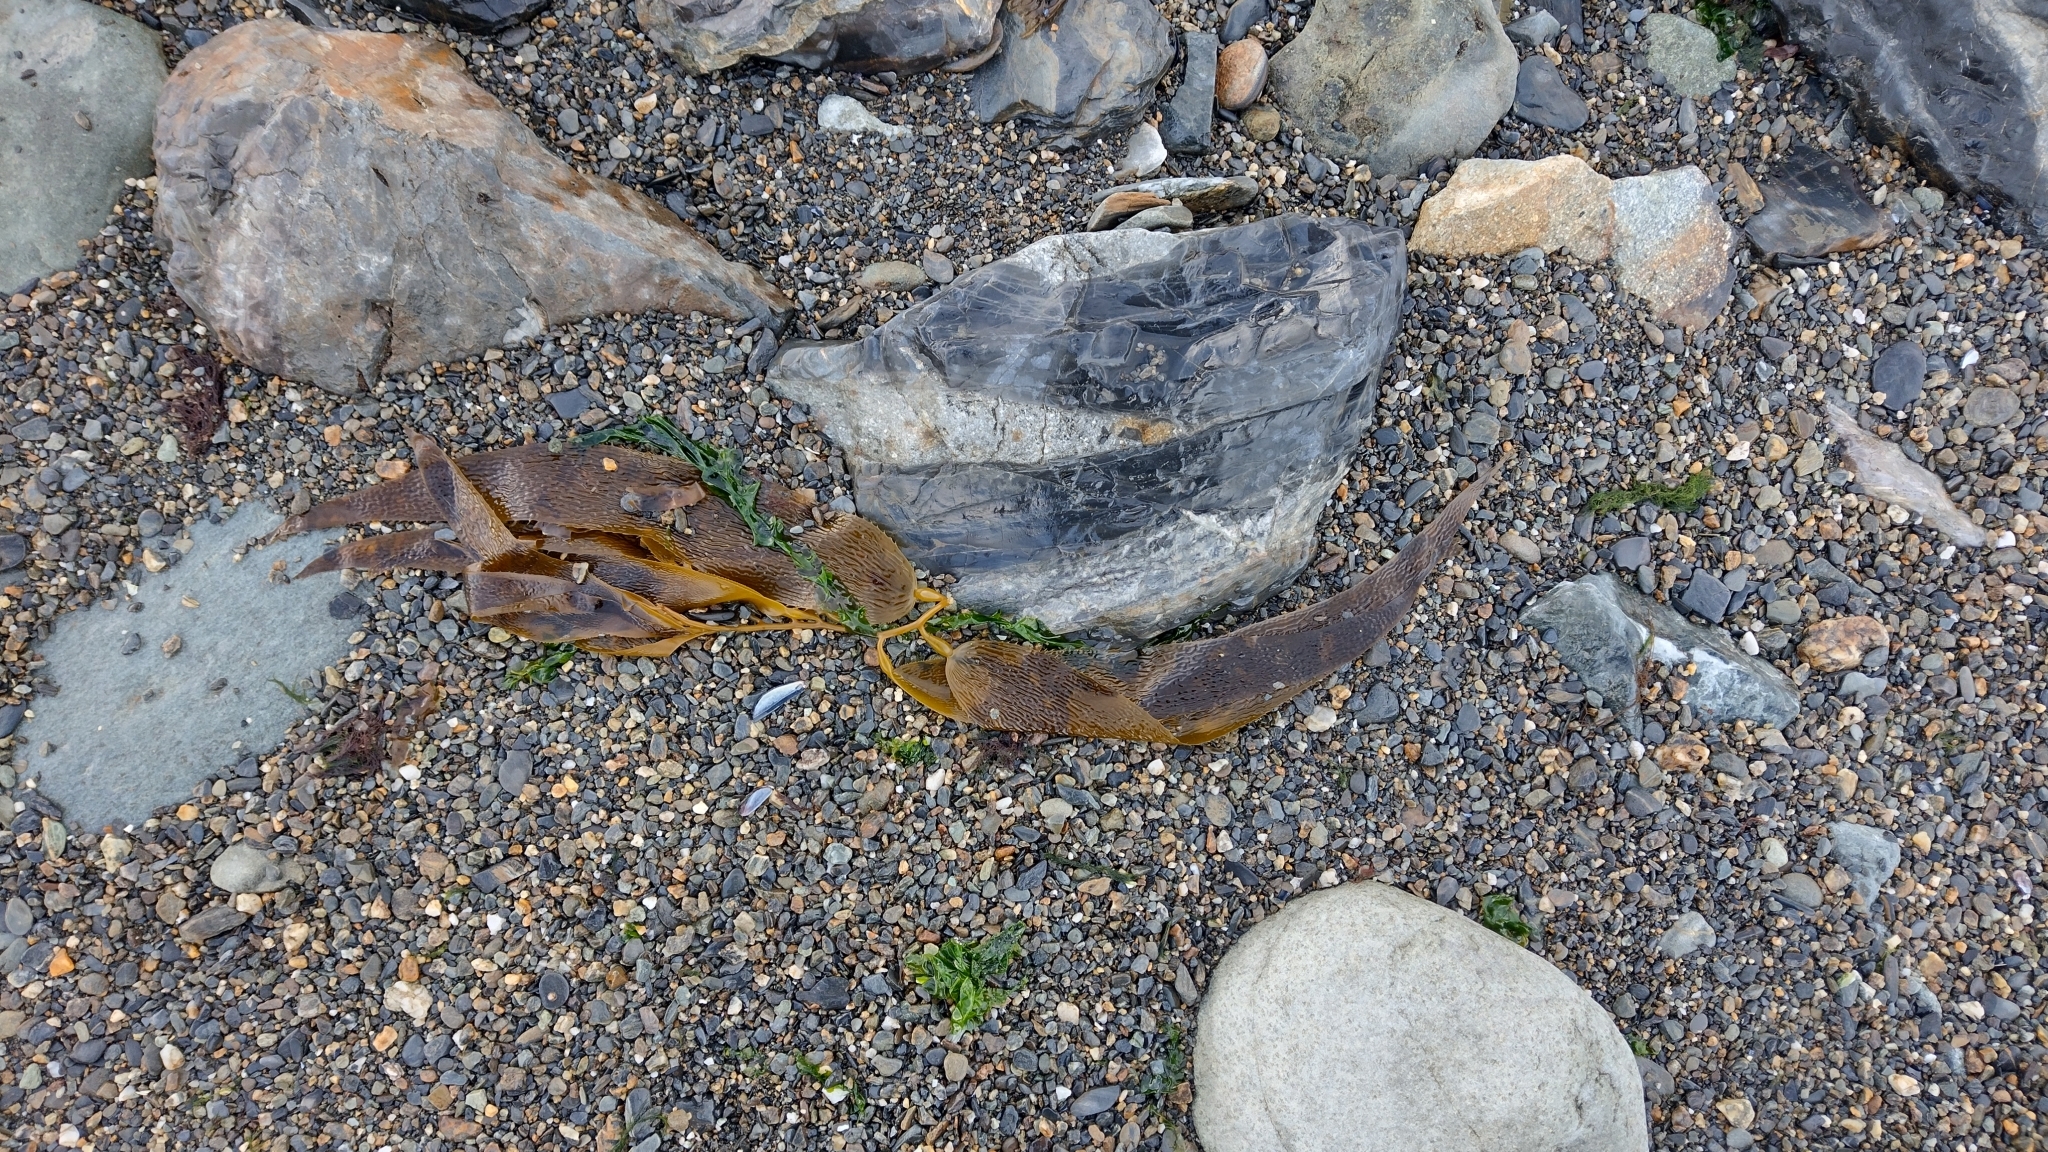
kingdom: Chromista
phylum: Ochrophyta
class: Phaeophyceae
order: Laminariales
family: Laminariaceae
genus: Macrocystis
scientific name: Macrocystis pyrifera
